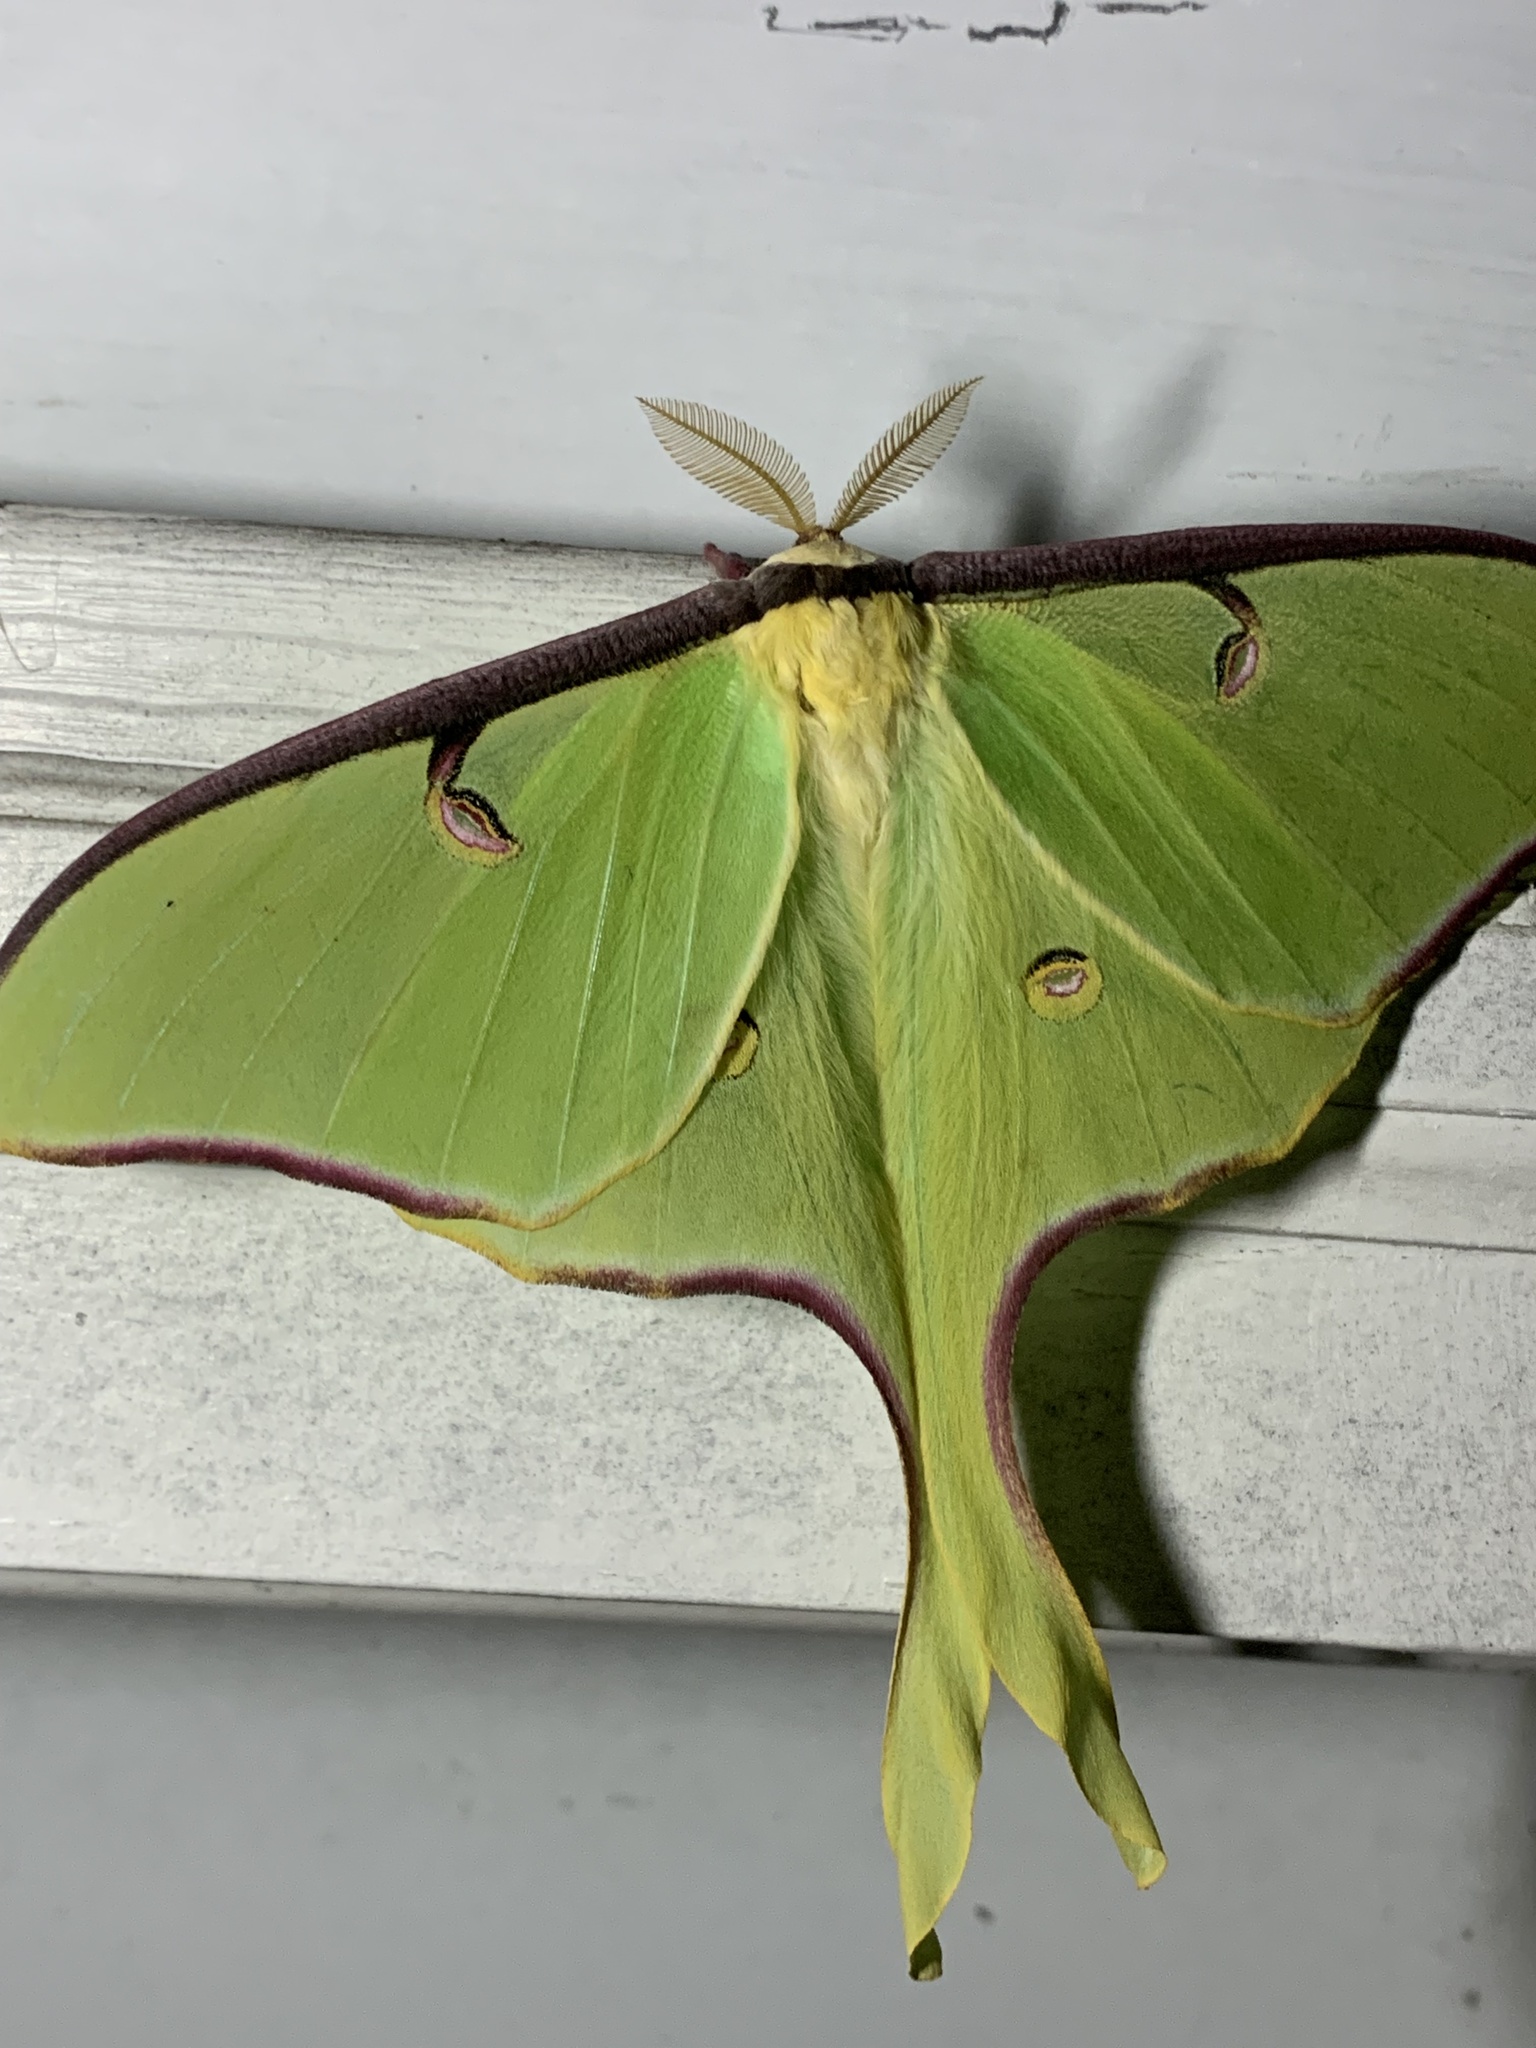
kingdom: Animalia
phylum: Arthropoda
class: Insecta
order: Lepidoptera
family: Saturniidae
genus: Actias
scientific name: Actias luna
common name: Luna moth
